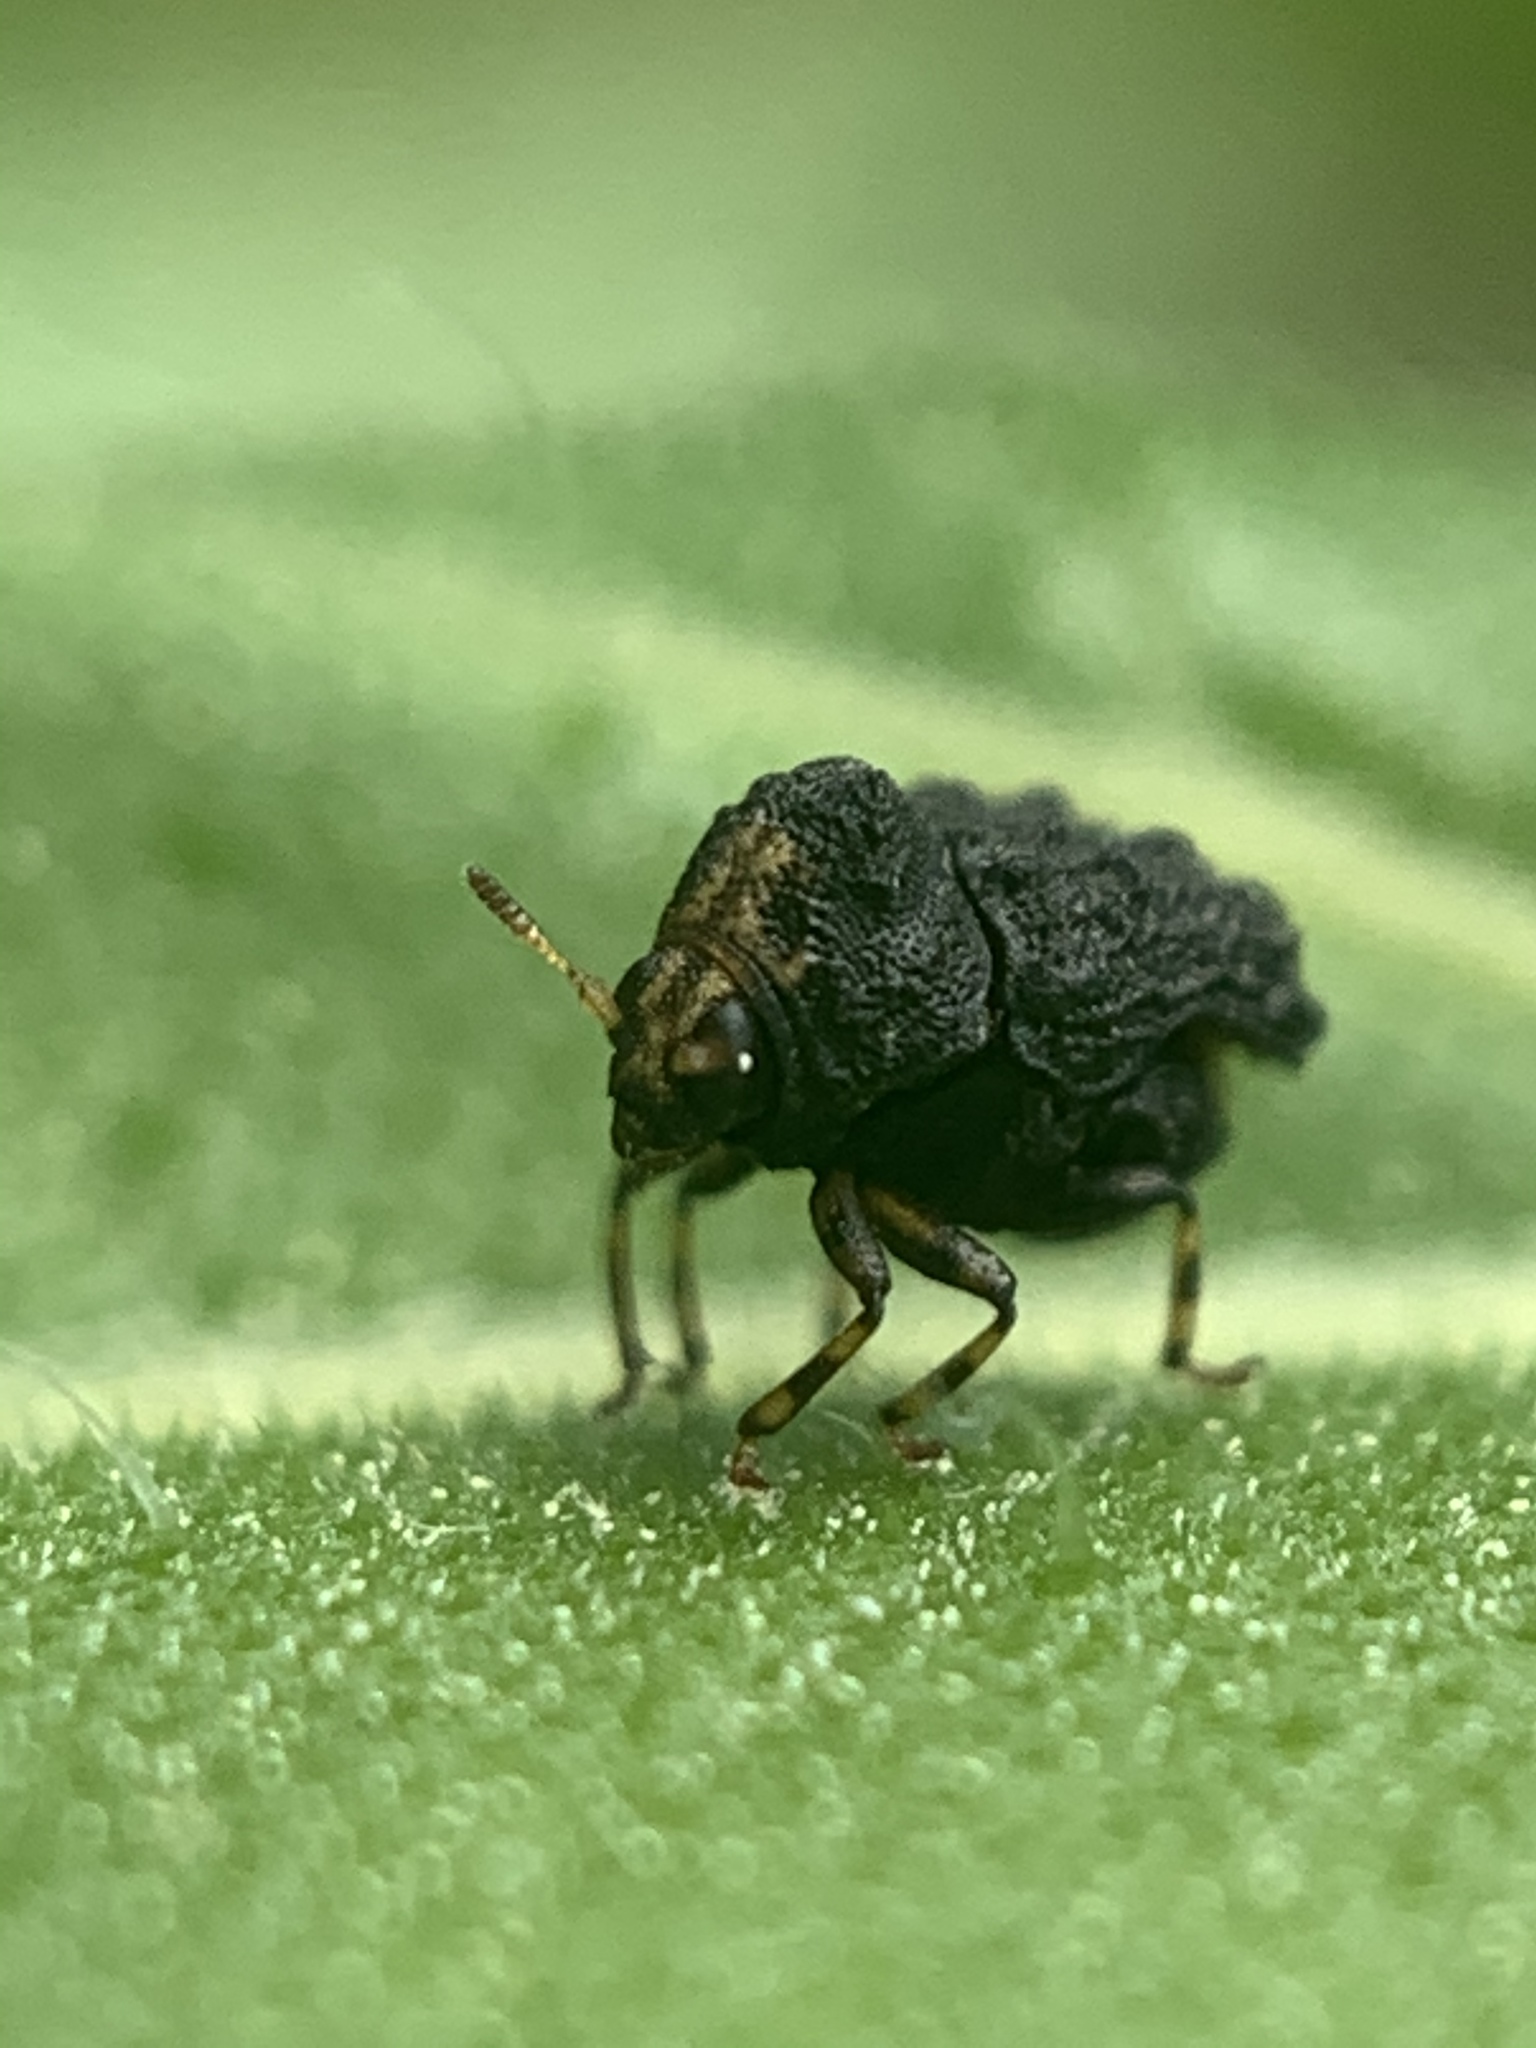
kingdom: Animalia
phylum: Arthropoda
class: Insecta
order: Coleoptera
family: Chrysomelidae
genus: Exema
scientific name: Exema dispar
